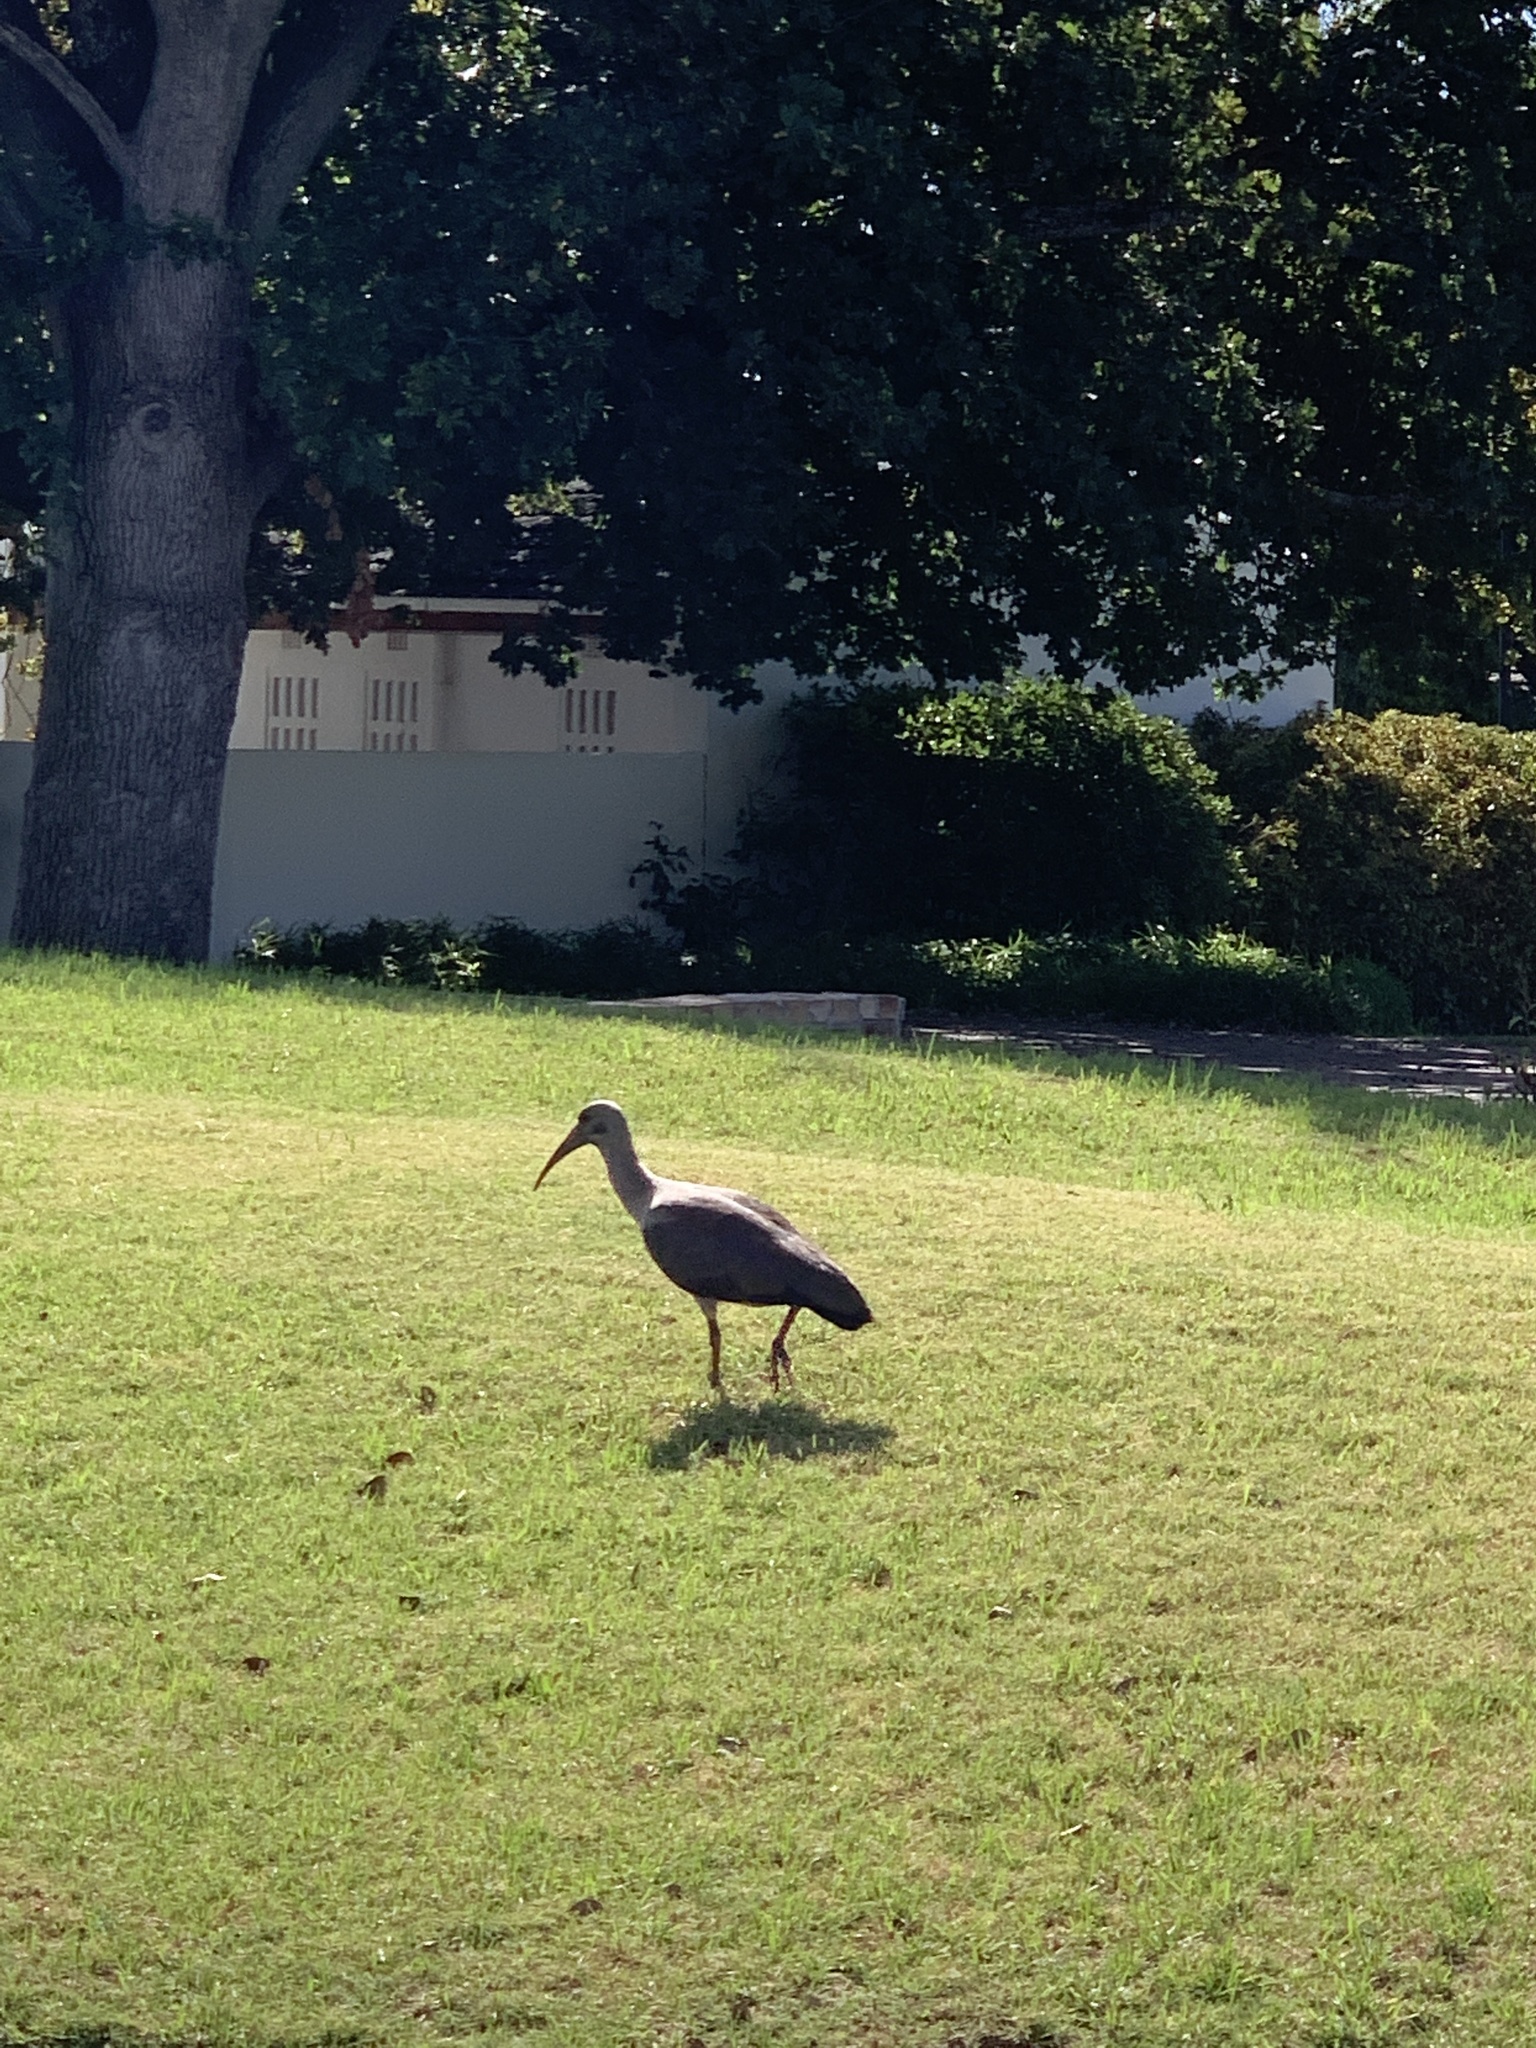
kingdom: Animalia
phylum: Chordata
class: Aves
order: Pelecaniformes
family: Threskiornithidae
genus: Bostrychia
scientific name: Bostrychia hagedash
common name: Hadada ibis
